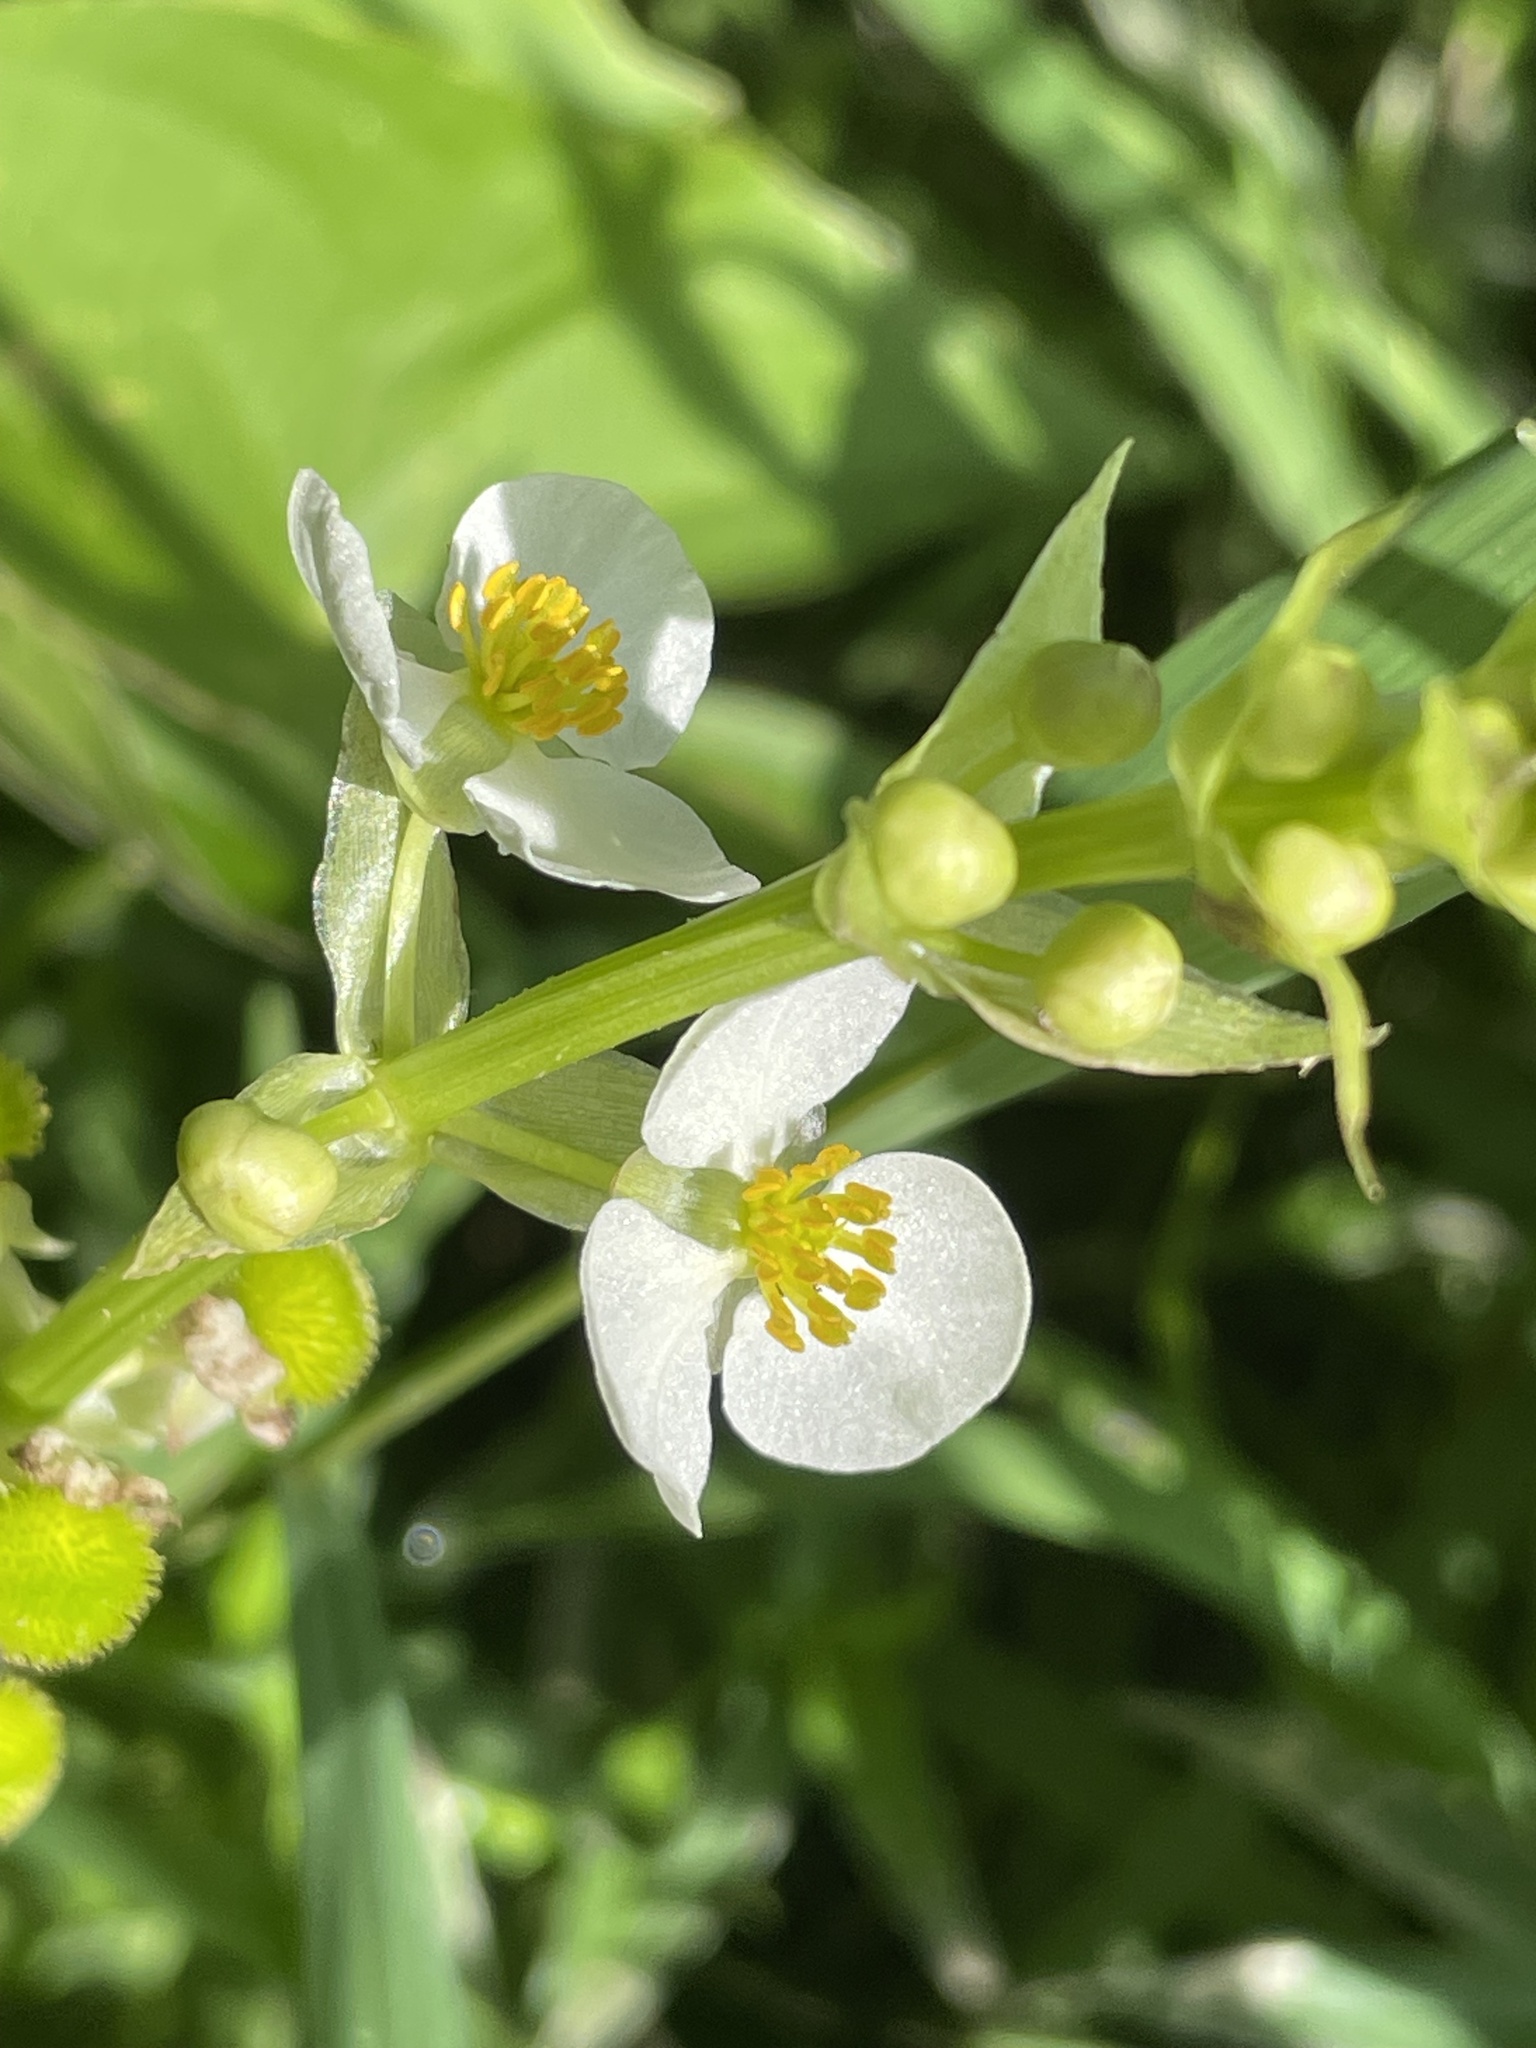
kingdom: Plantae
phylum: Tracheophyta
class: Liliopsida
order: Alismatales
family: Alismataceae
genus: Sagittaria
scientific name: Sagittaria australis
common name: Appalachian arrowhead
